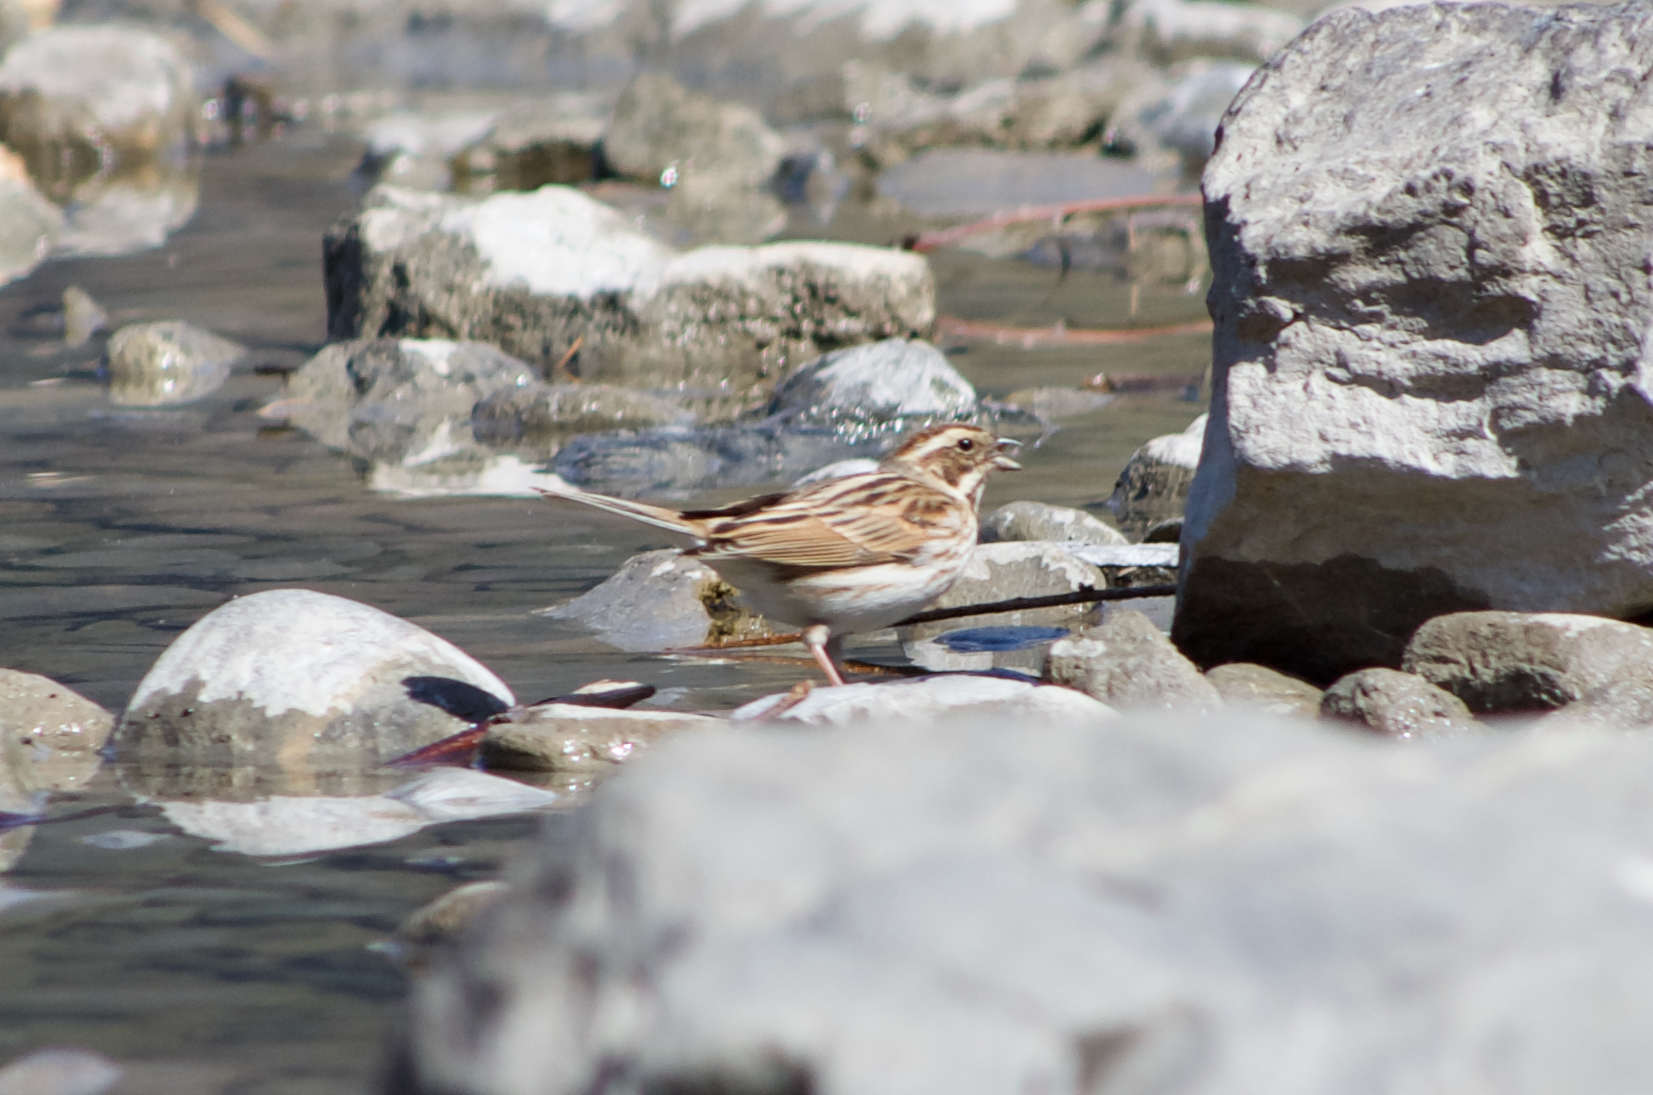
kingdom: Animalia
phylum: Chordata
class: Aves
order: Passeriformes
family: Emberizidae
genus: Emberiza
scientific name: Emberiza schoeniclus
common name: Reed bunting
